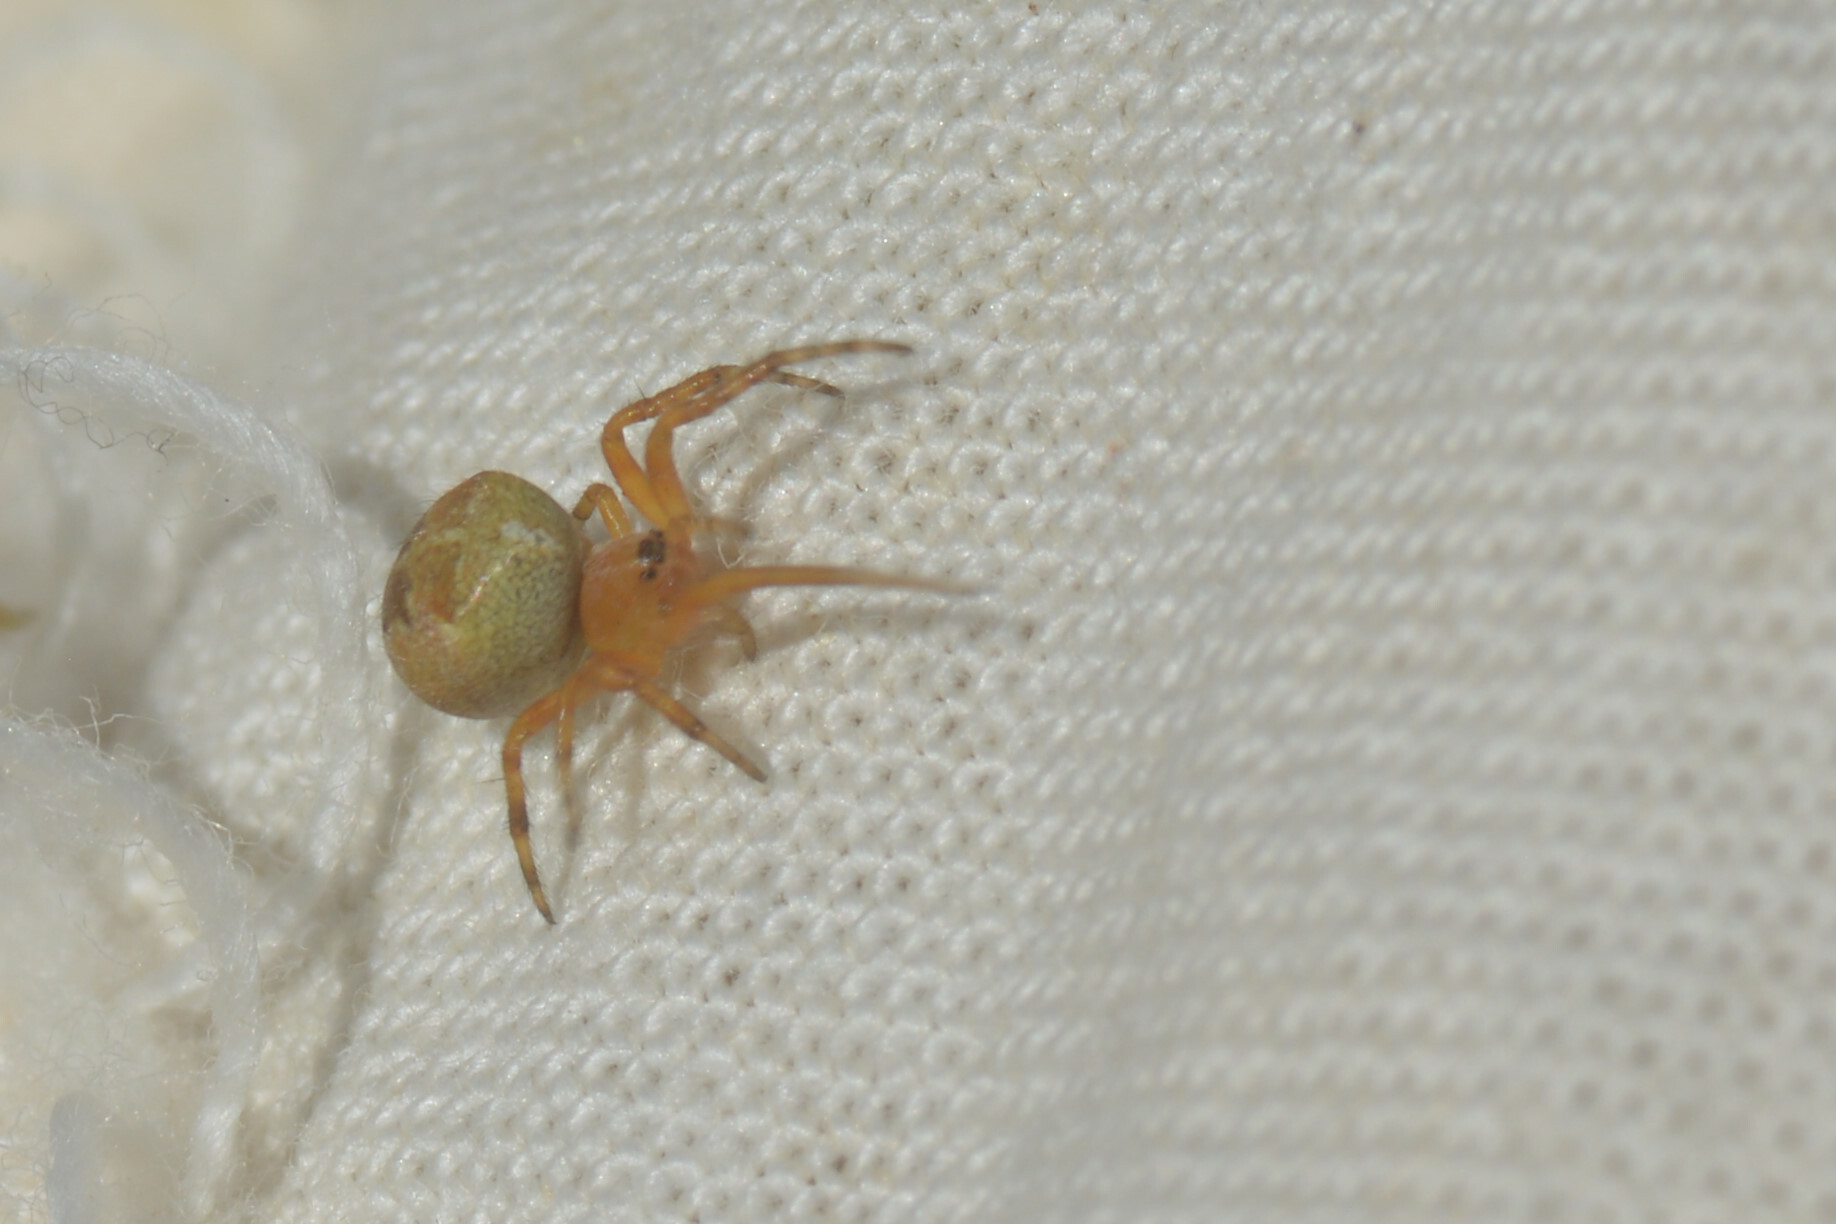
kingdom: Animalia
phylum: Arthropoda
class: Arachnida
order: Araneae
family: Araneidae
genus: Araneus
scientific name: Araneus diadematus
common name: Cross orbweaver
